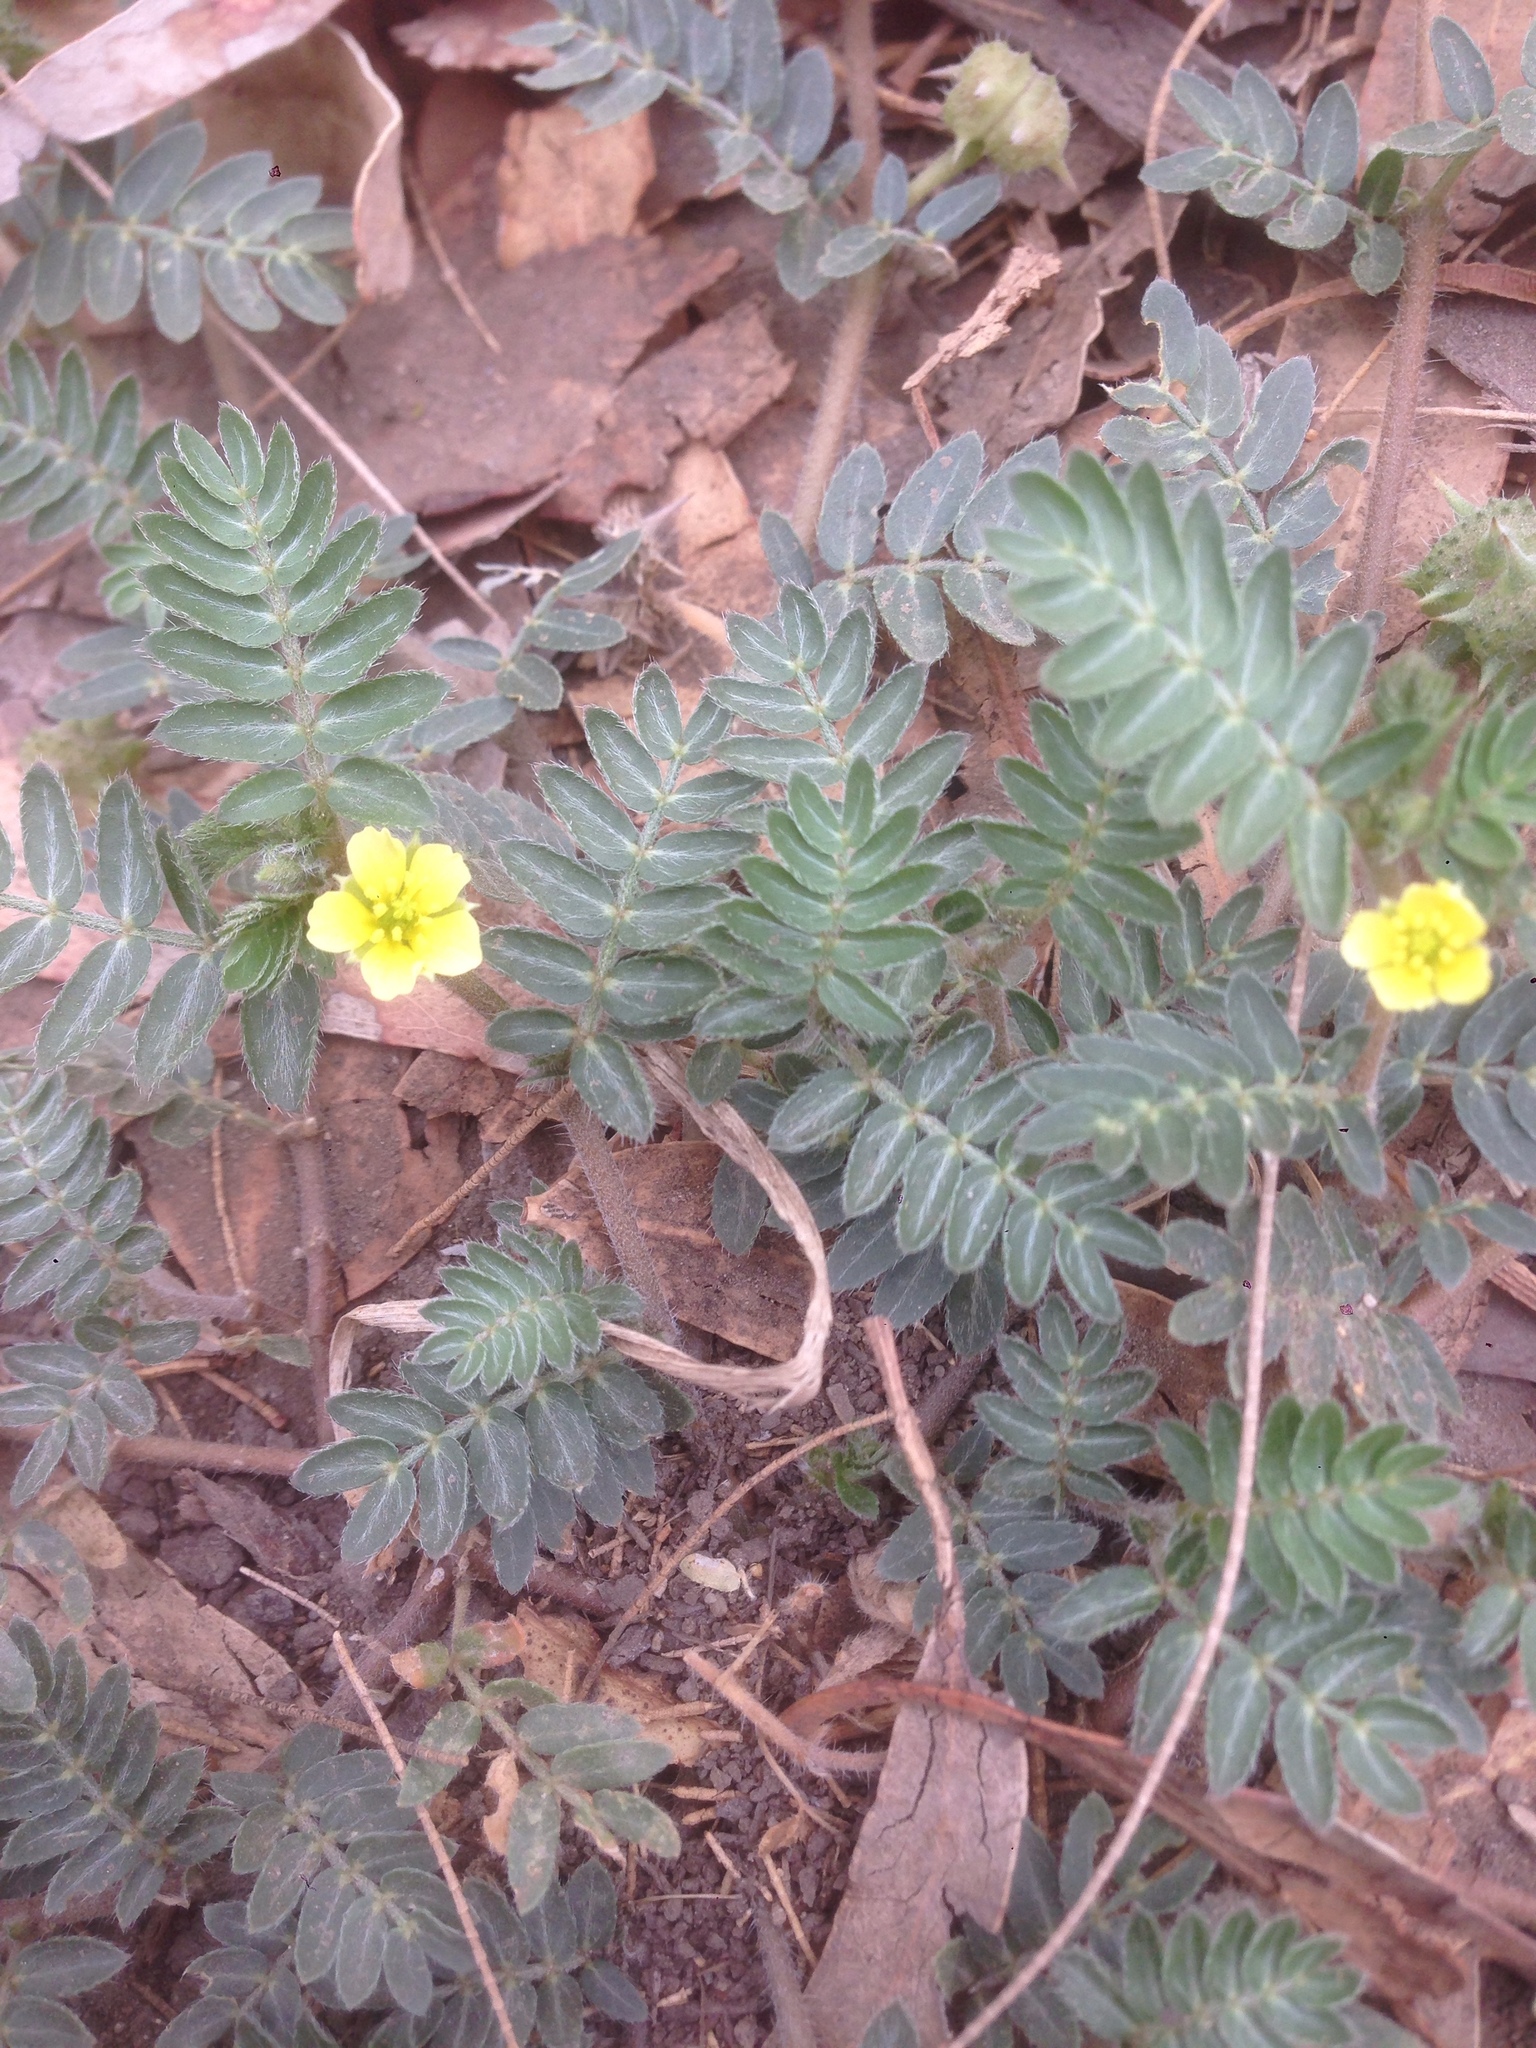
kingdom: Plantae
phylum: Tracheophyta
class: Magnoliopsida
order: Zygophyllales
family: Zygophyllaceae
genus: Tribulus
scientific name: Tribulus terrestris
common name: Puncturevine
